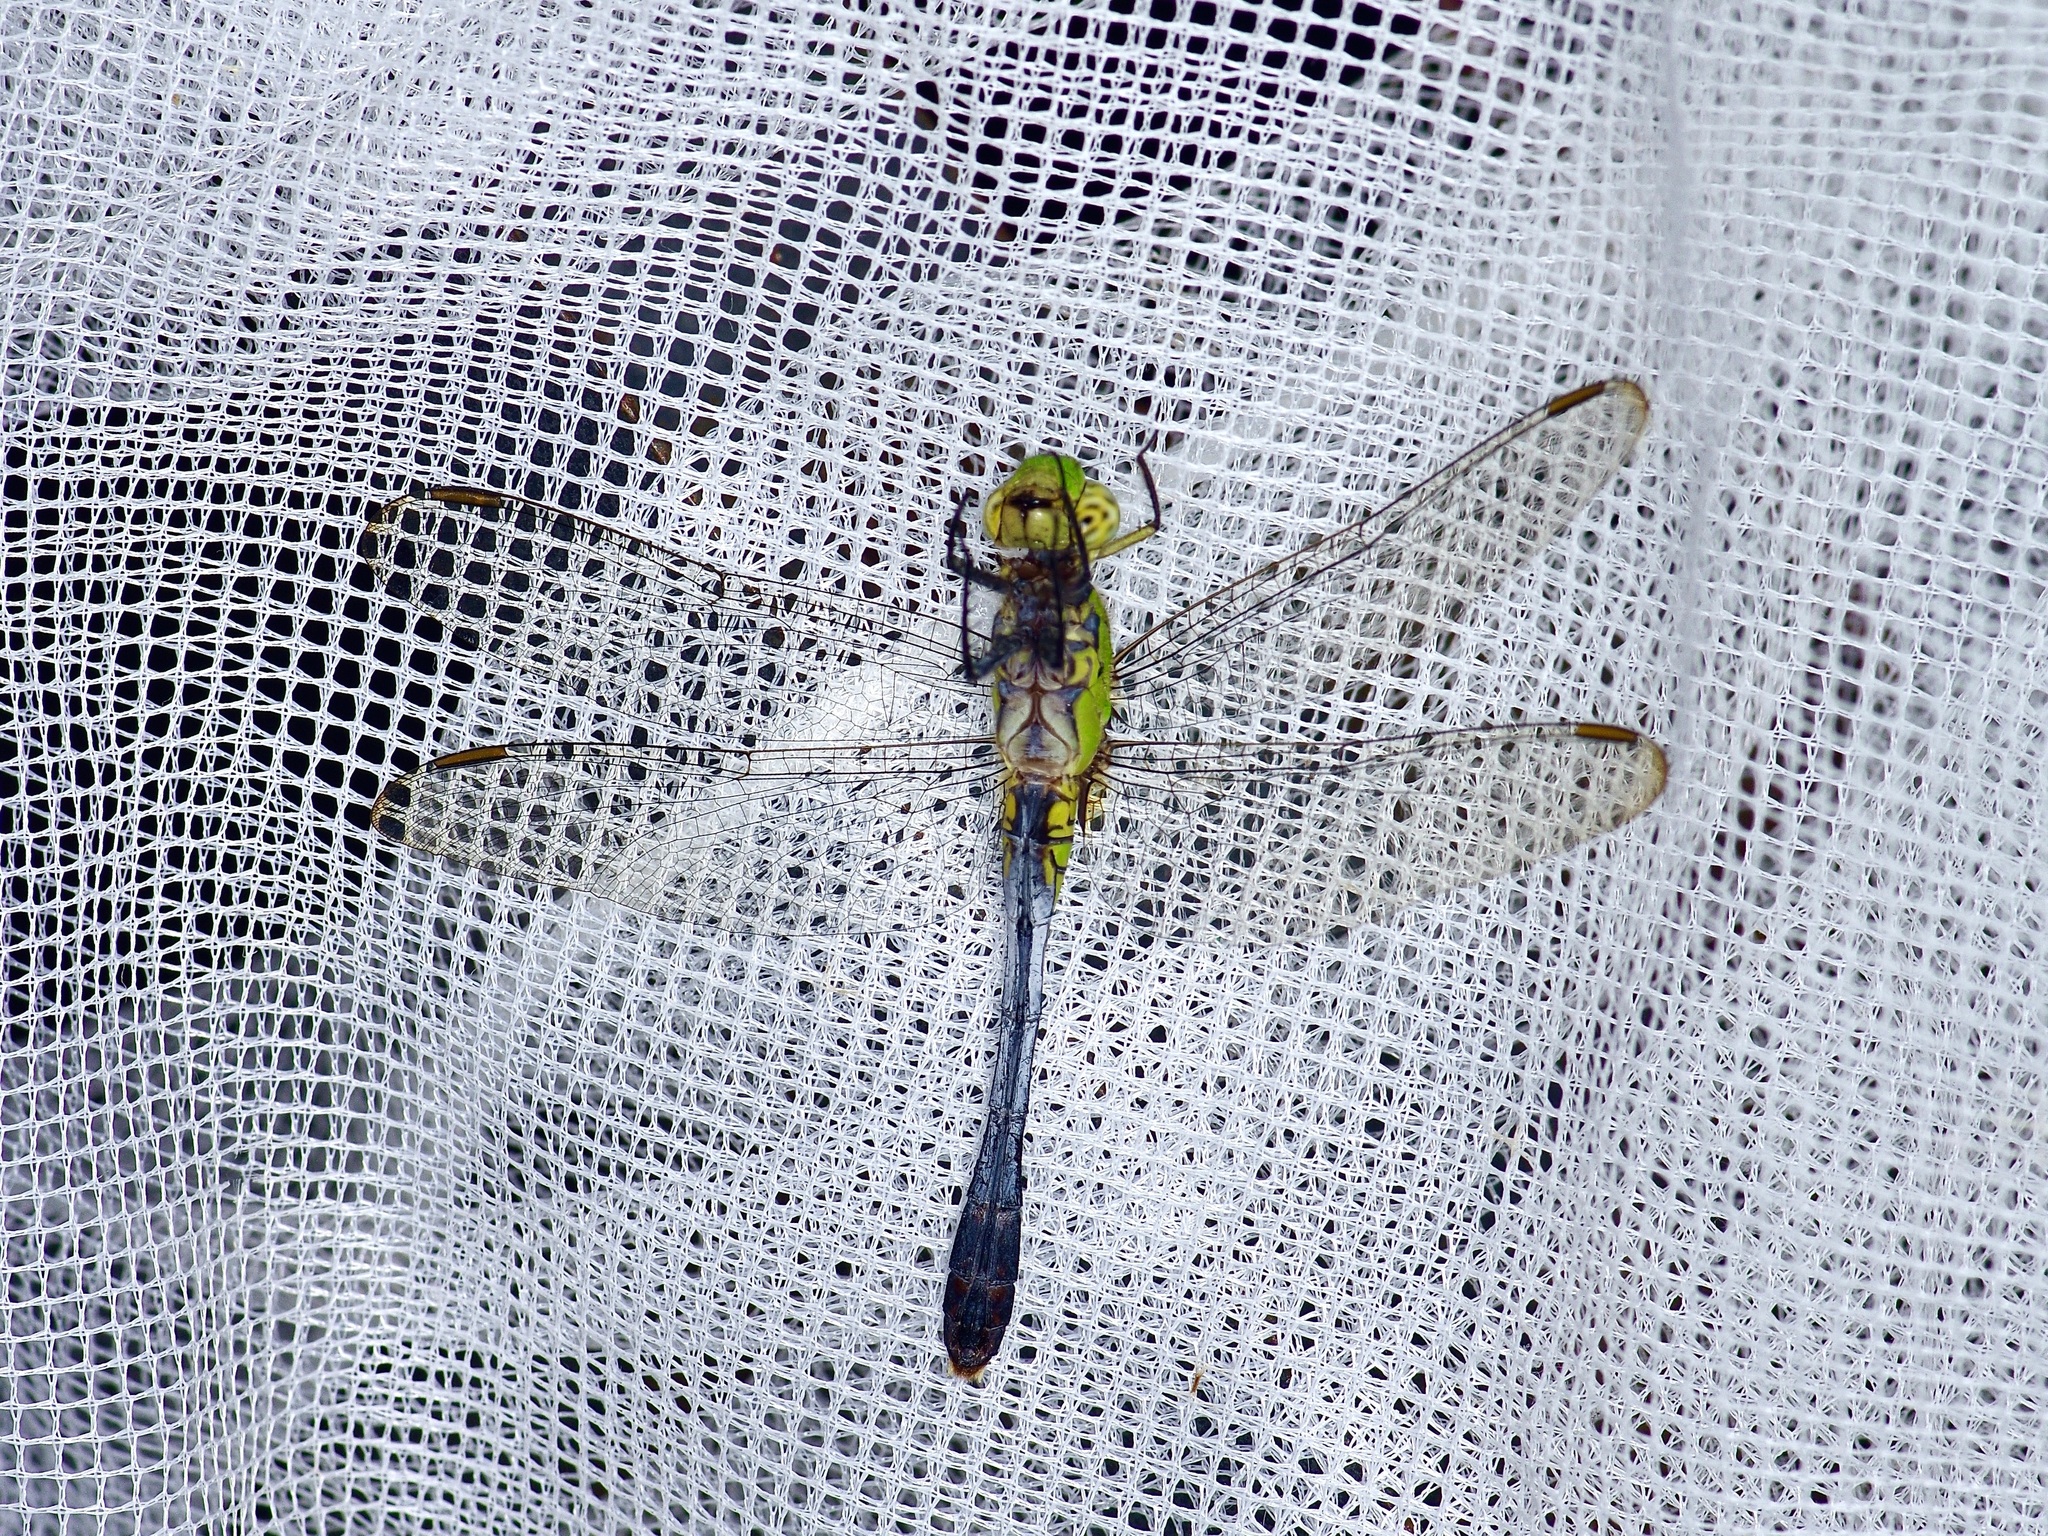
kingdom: Animalia
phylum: Arthropoda
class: Insecta
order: Odonata
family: Libellulidae
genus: Erythemis
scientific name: Erythemis simplicicollis
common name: Eastern pondhawk
